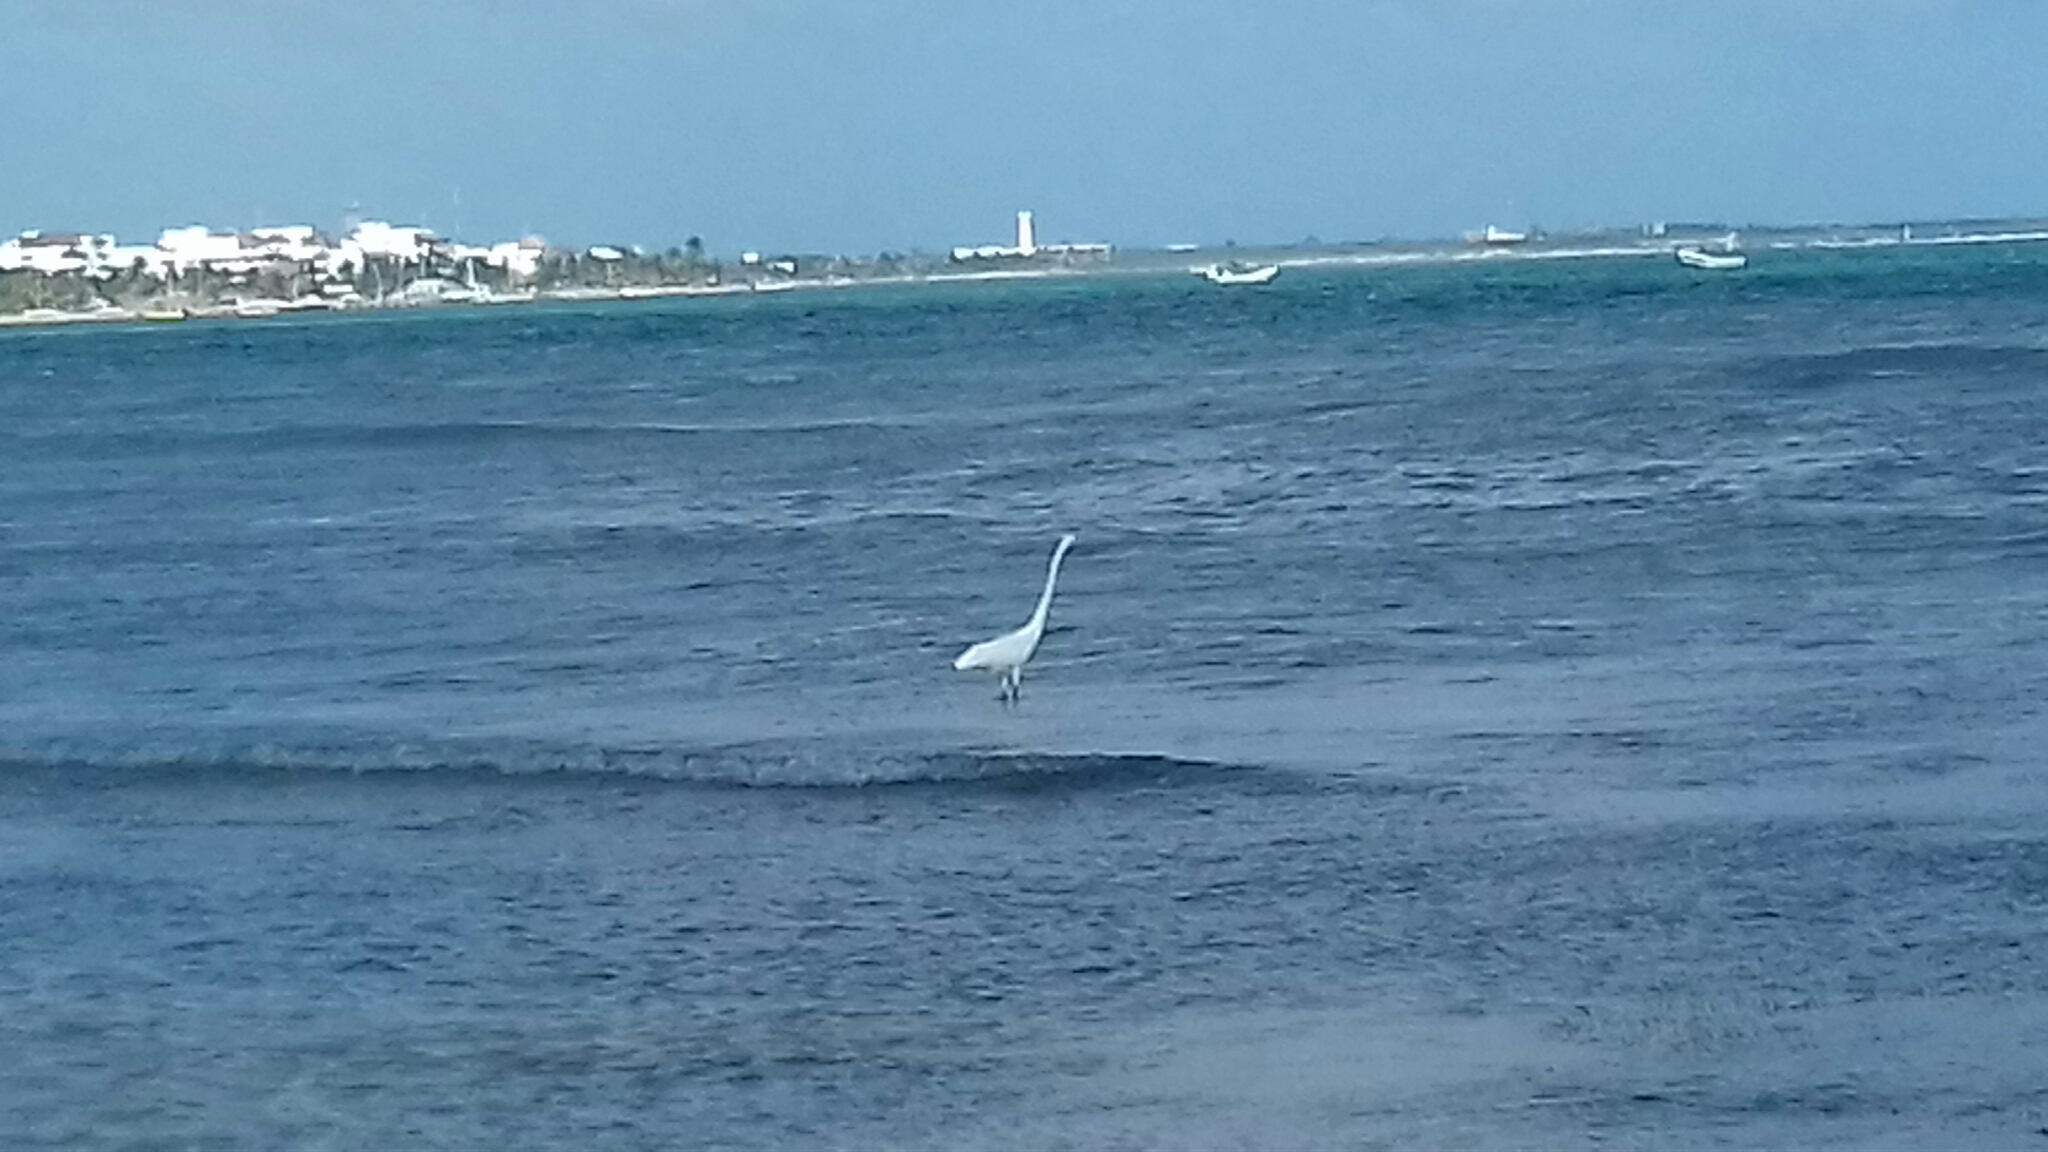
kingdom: Animalia
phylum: Chordata
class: Aves
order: Pelecaniformes
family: Ardeidae
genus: Ardea
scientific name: Ardea alba
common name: Great egret
